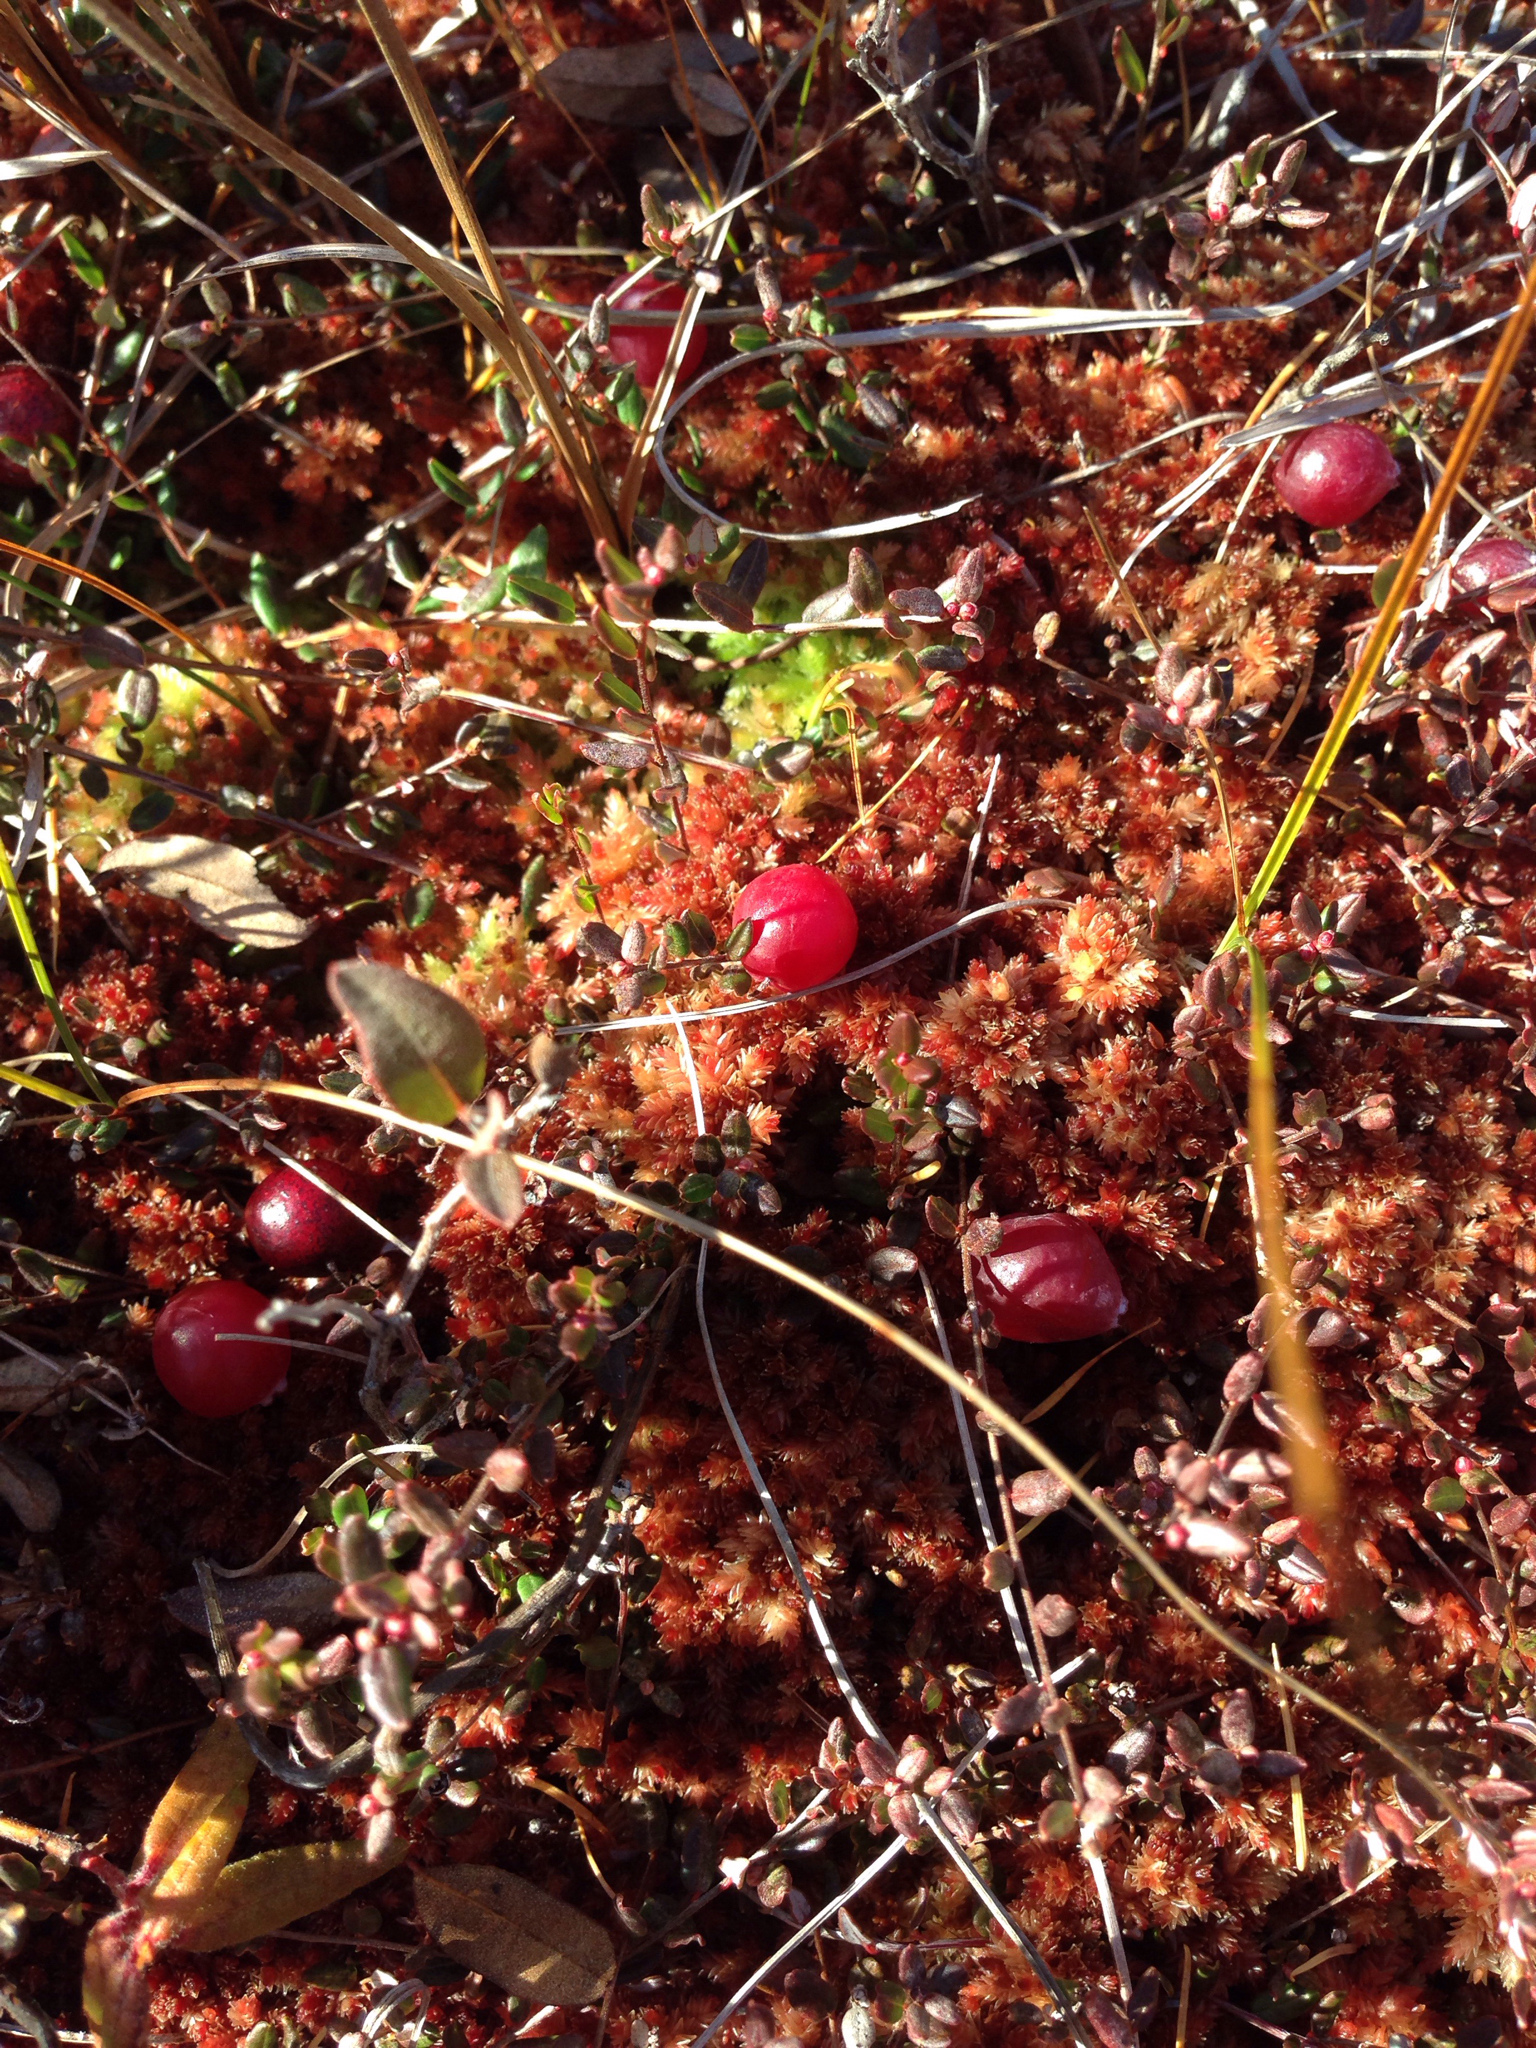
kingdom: Plantae
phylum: Tracheophyta
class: Magnoliopsida
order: Ericales
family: Ericaceae
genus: Vaccinium
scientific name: Vaccinium oxycoccos
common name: Cranberry
